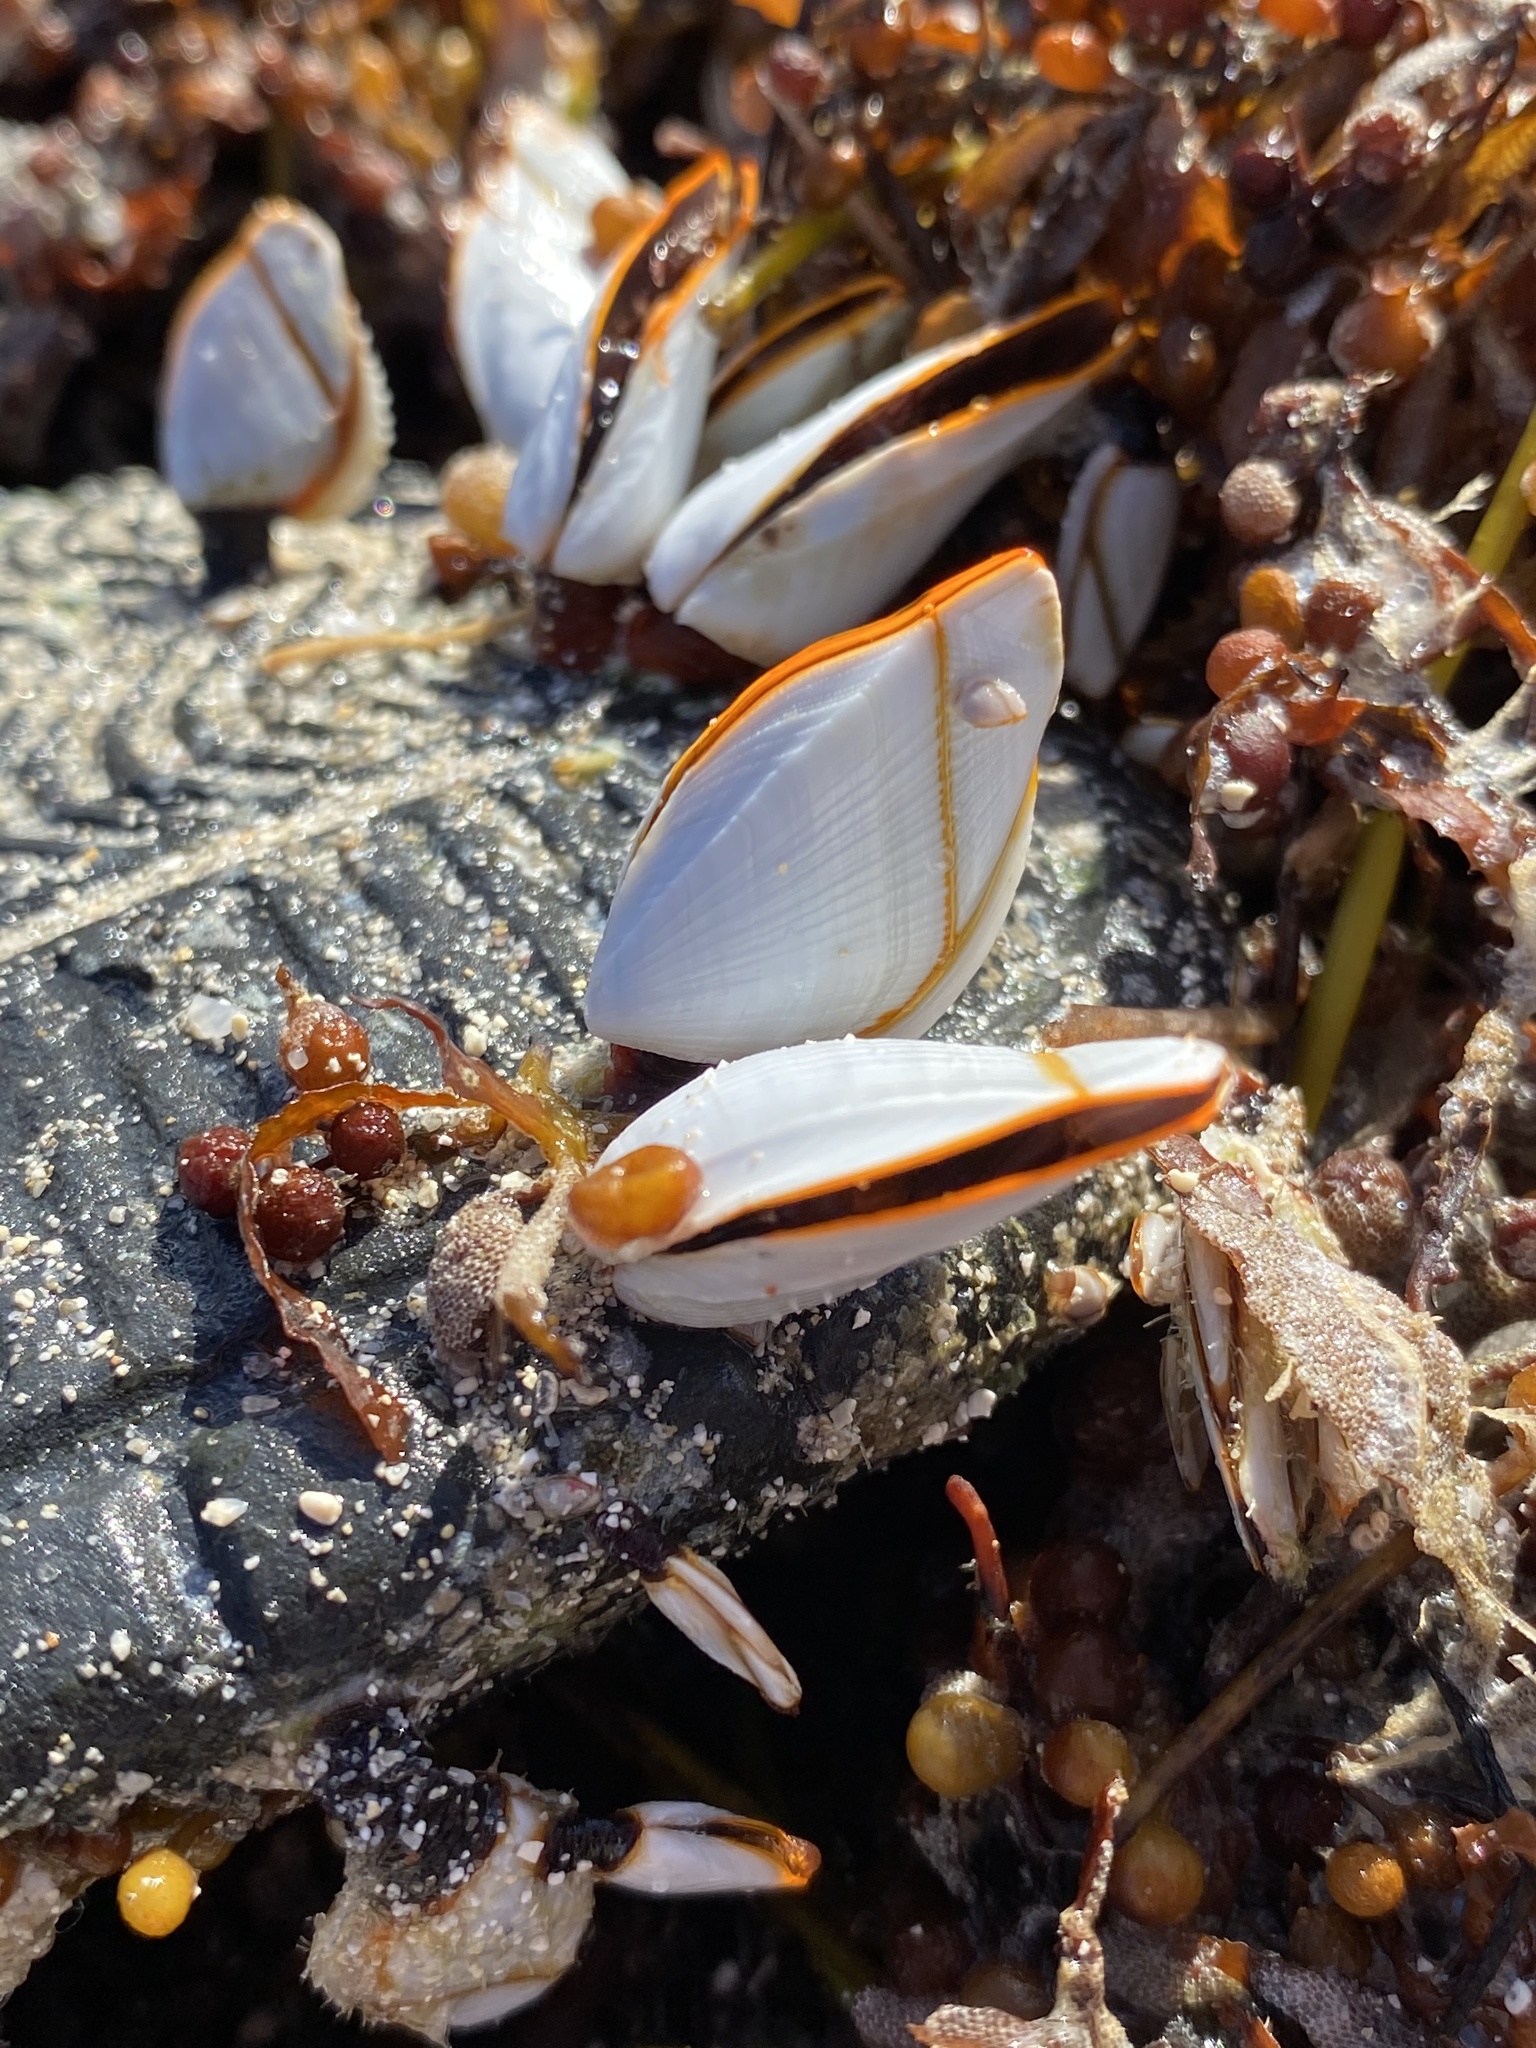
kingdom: Animalia
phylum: Arthropoda
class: Maxillopoda
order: Pedunculata
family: Lepadidae
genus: Lepas
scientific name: Lepas anserifera
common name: Goose barnacle
